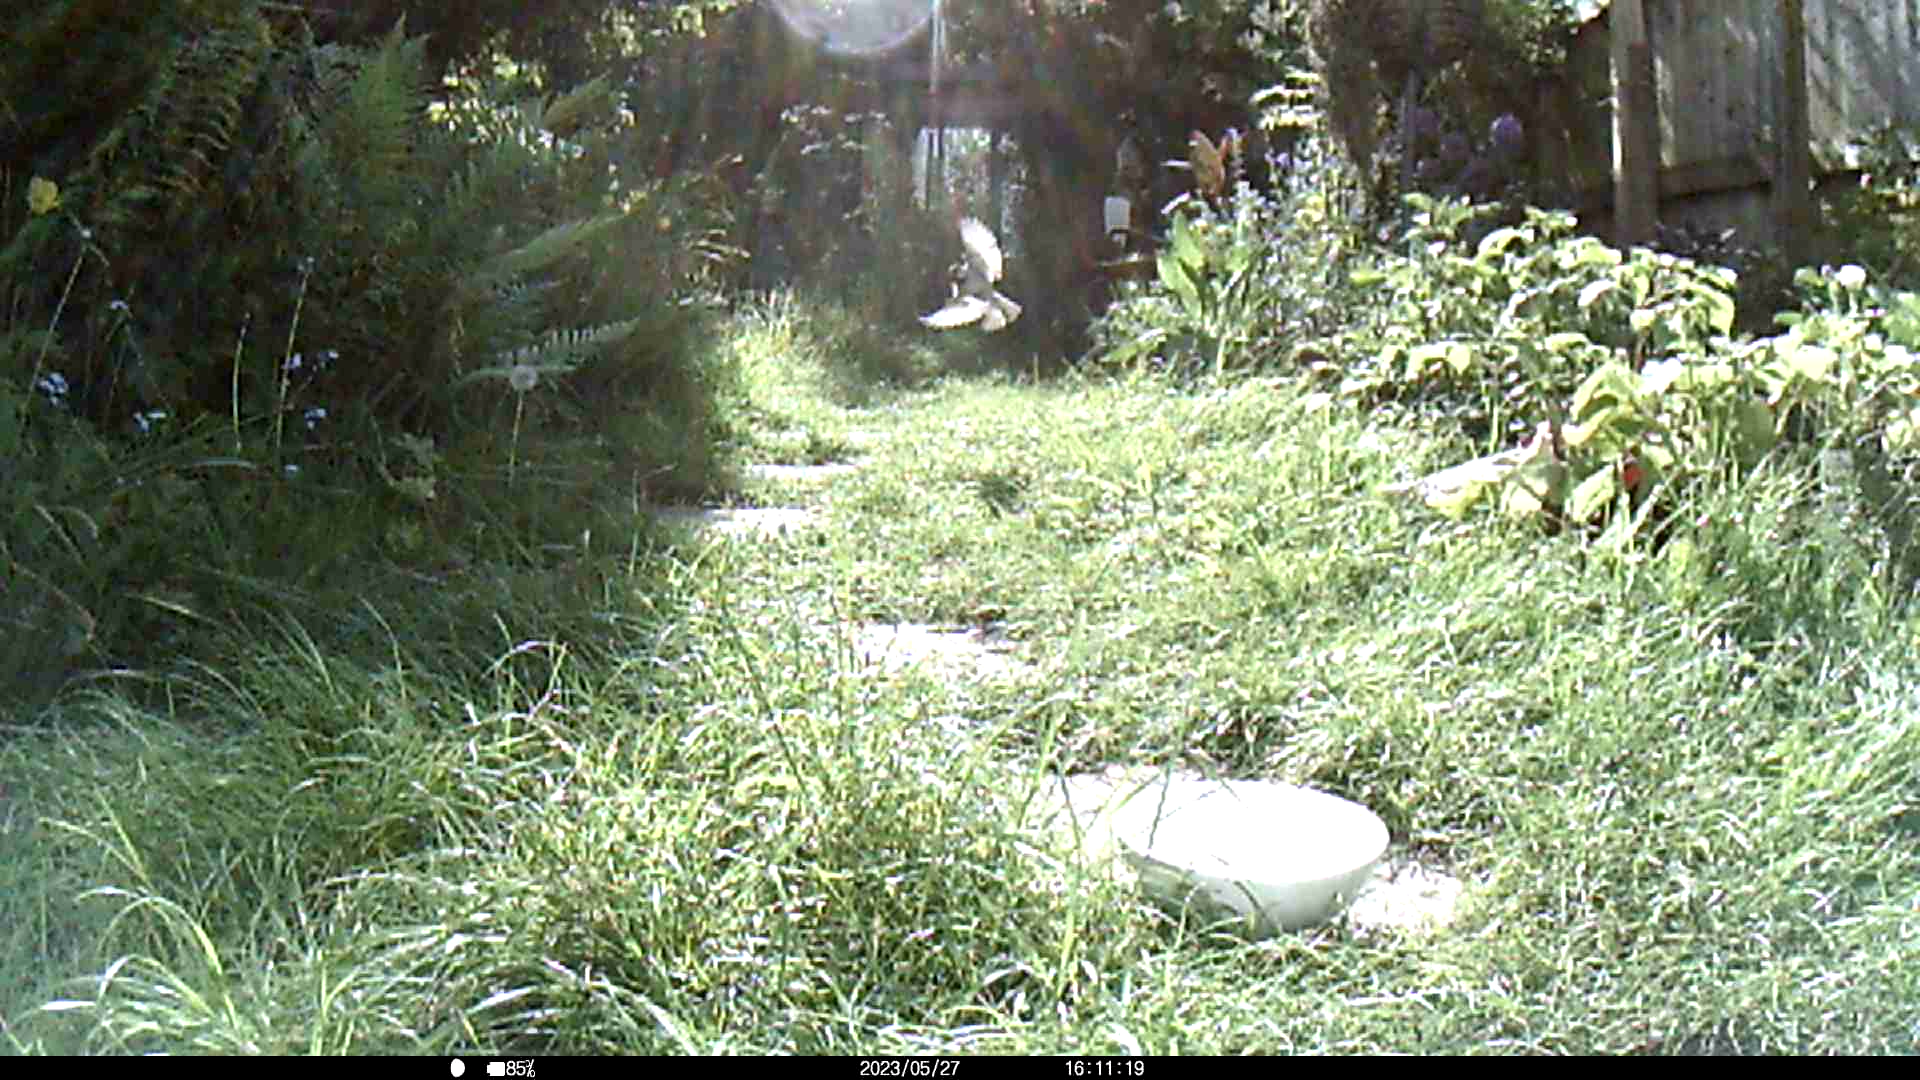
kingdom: Animalia
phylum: Chordata
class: Aves
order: Passeriformes
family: Passeridae
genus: Passer
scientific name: Passer domesticus
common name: House sparrow
